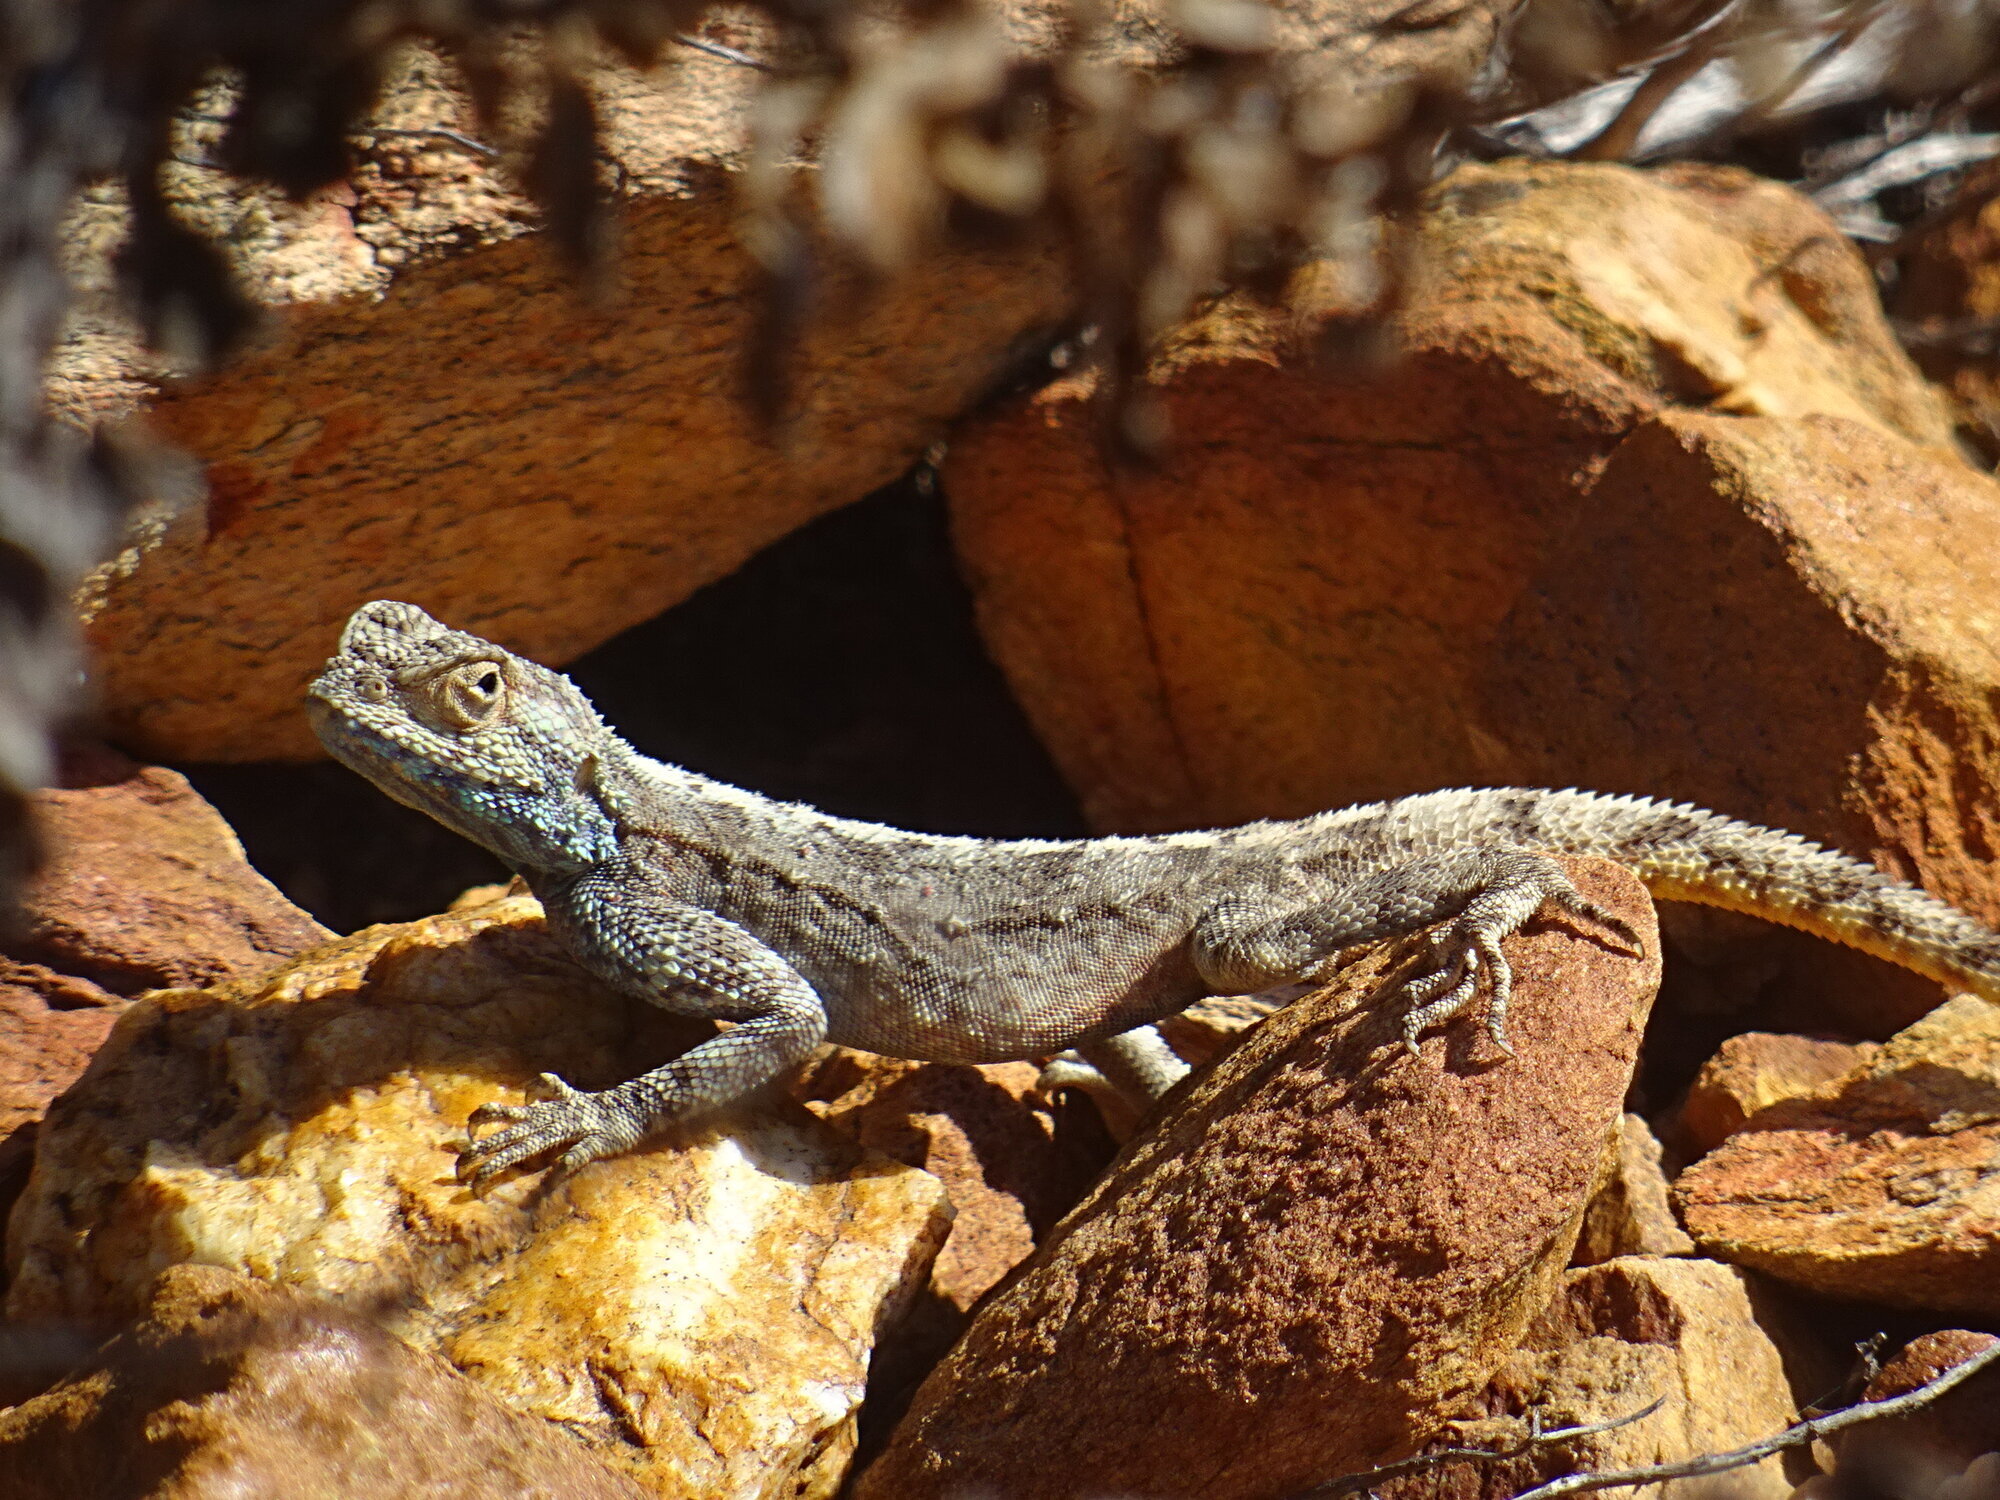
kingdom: Animalia
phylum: Chordata
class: Squamata
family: Agamidae
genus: Agama
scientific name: Agama atra
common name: Southern african rock agama
